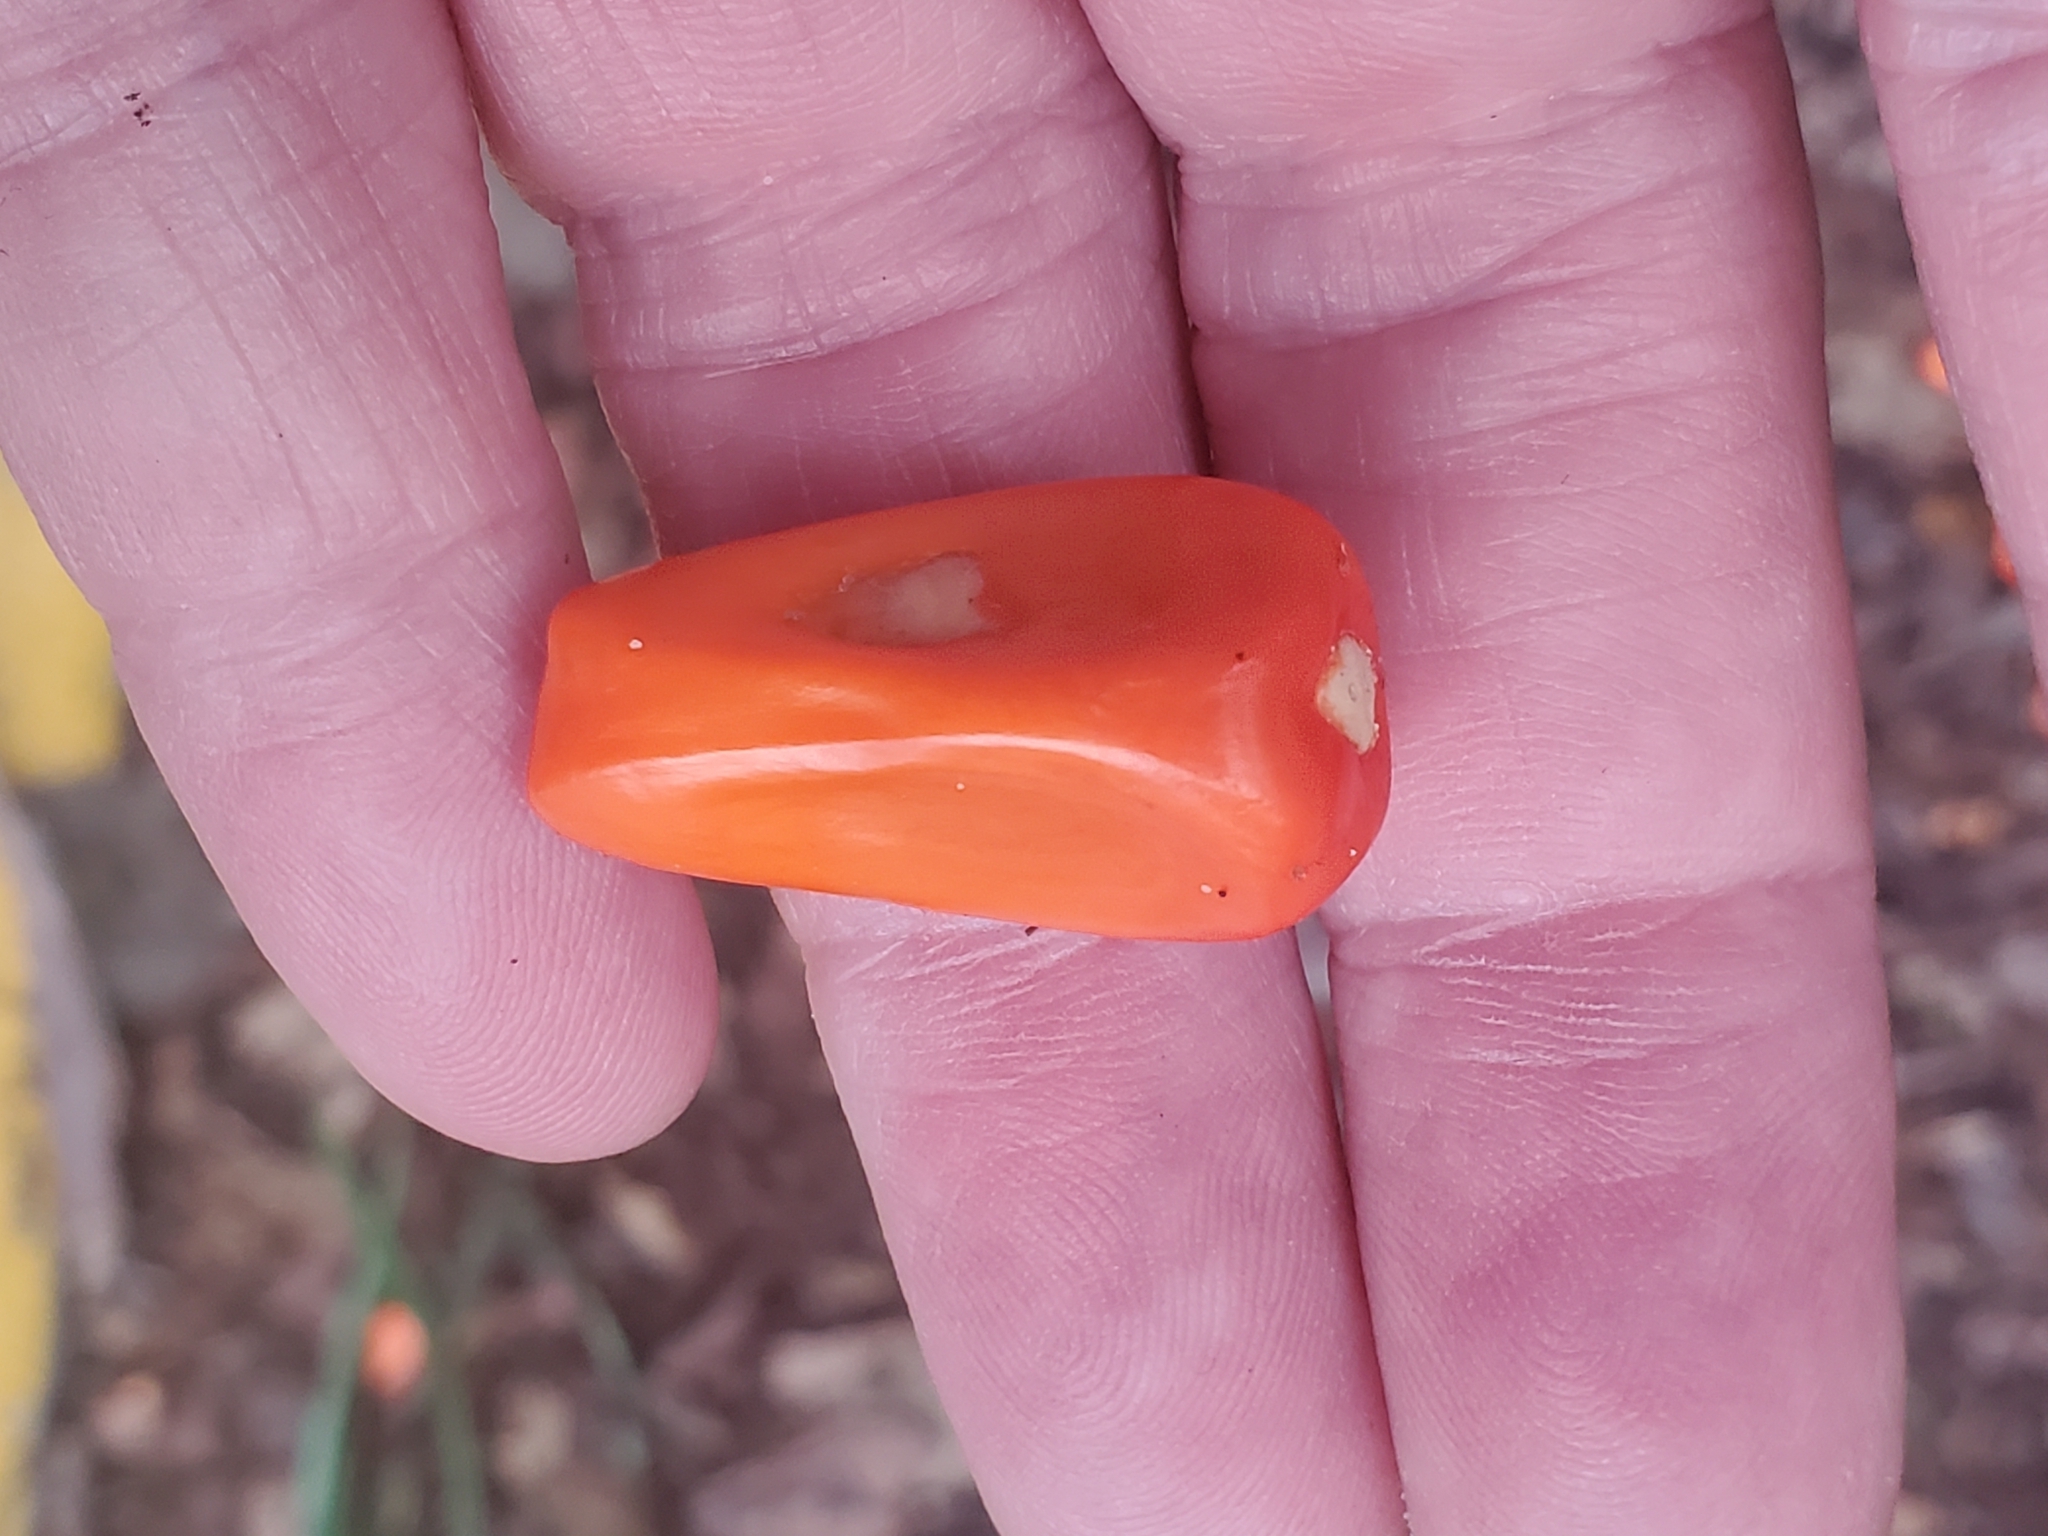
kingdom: Plantae
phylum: Tracheophyta
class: Cycadopsida
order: Cycadales
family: Zamiaceae
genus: Zamia
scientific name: Zamia integrifolia
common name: Florida arrowroot
